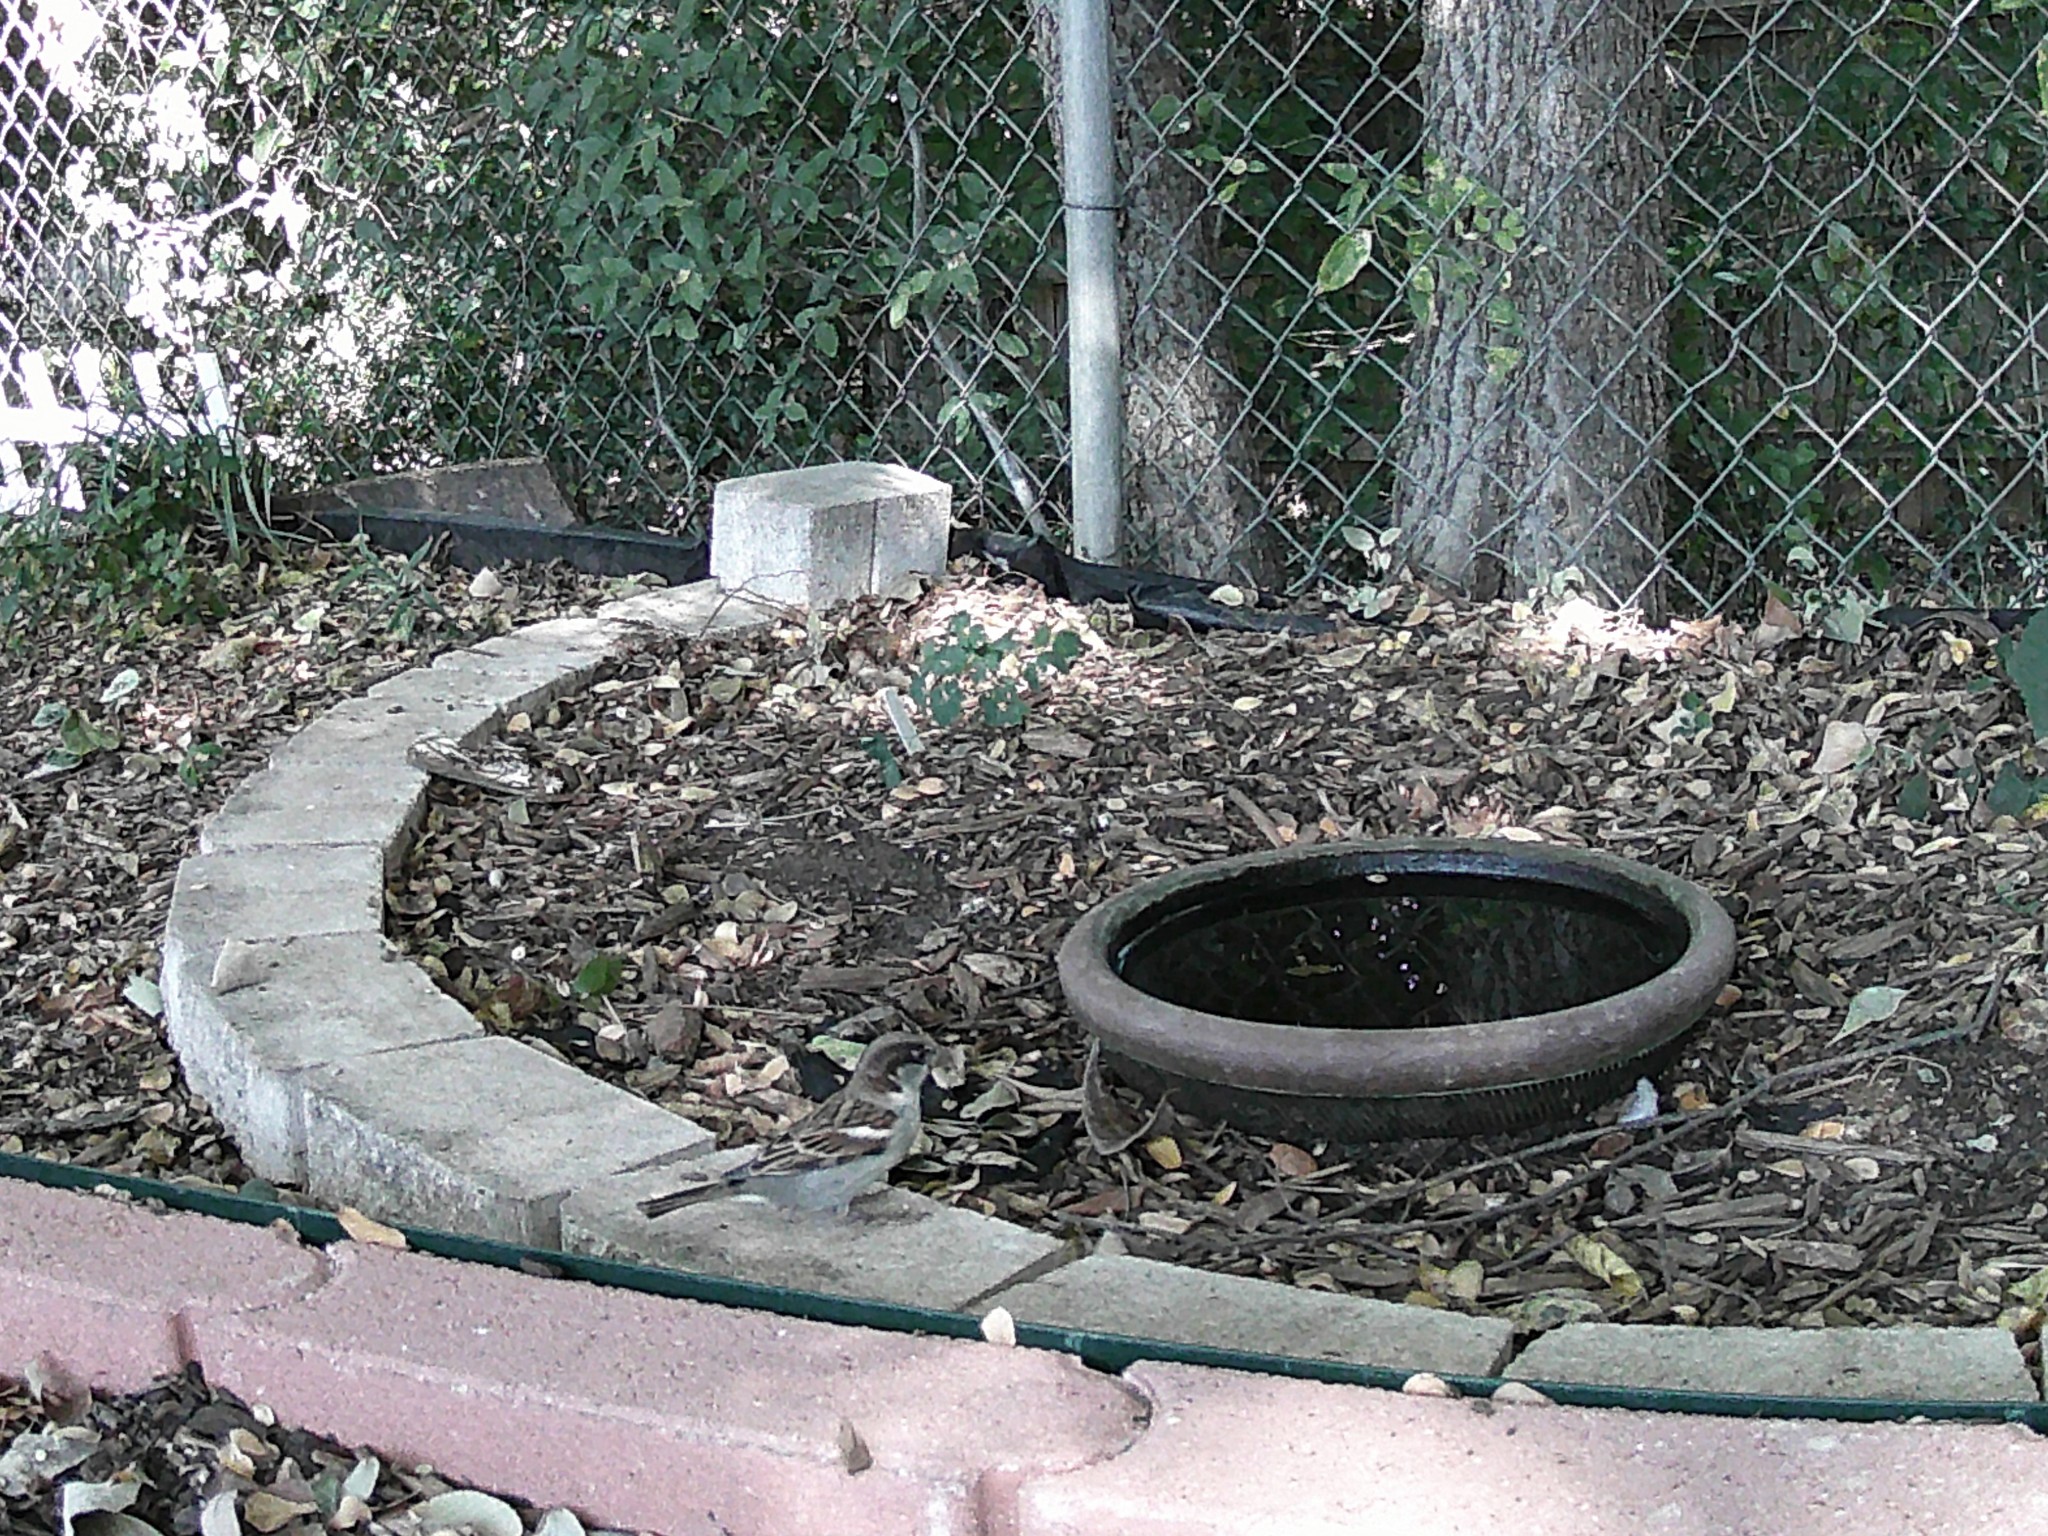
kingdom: Animalia
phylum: Chordata
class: Aves
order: Passeriformes
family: Passeridae
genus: Passer
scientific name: Passer domesticus
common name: House sparrow
